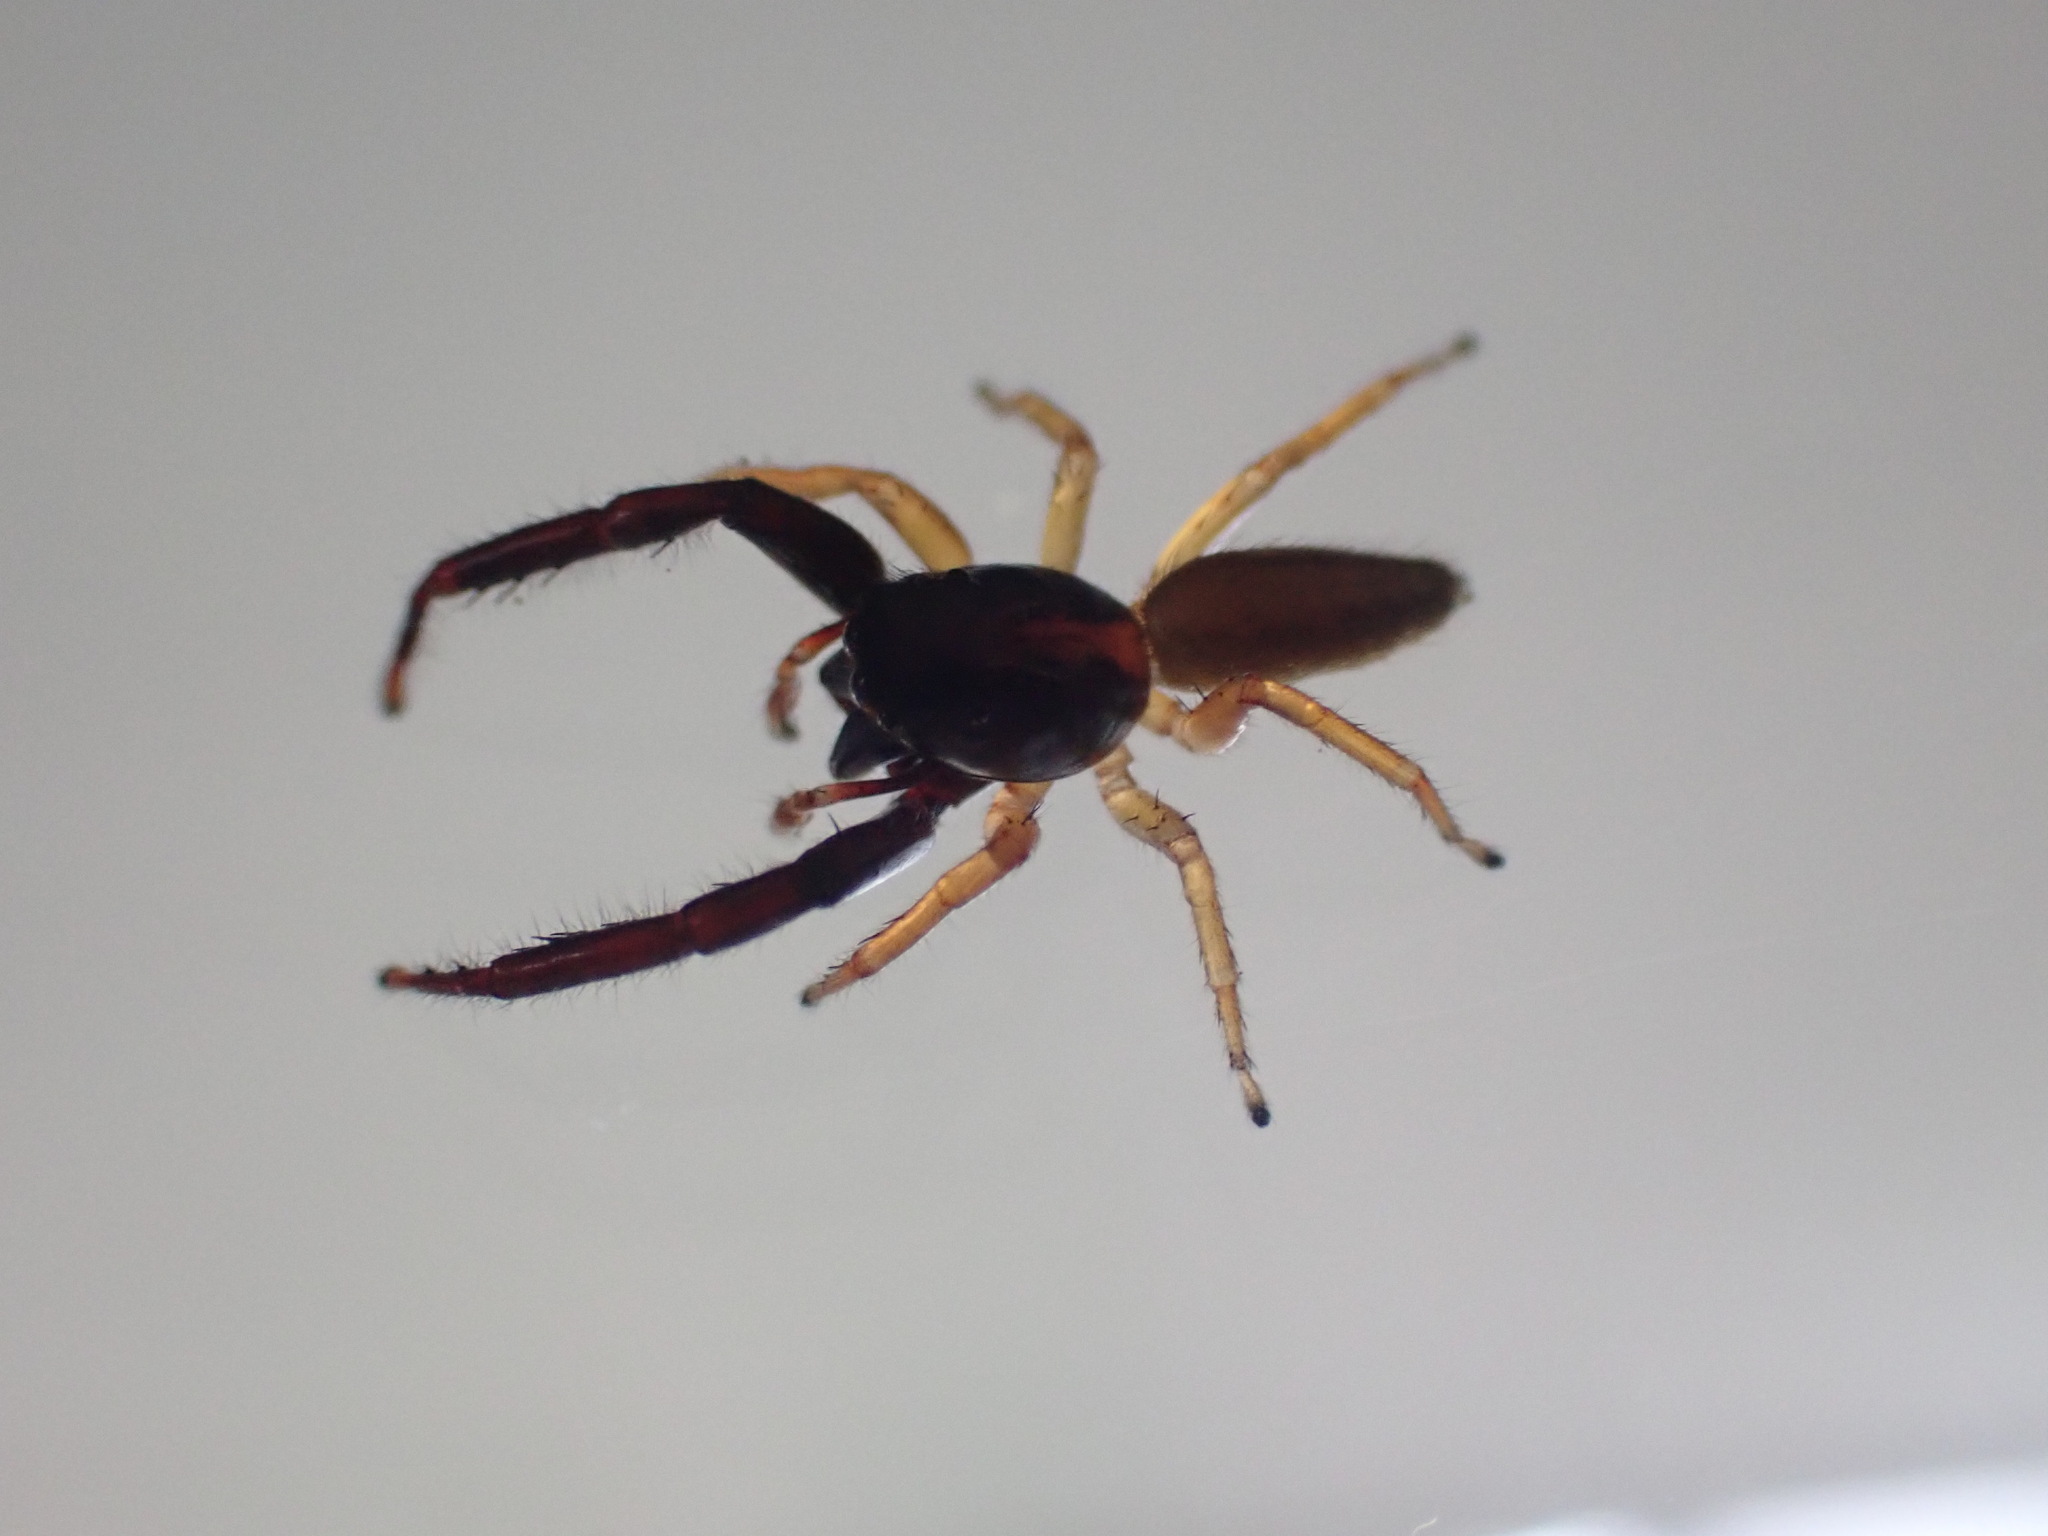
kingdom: Animalia
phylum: Arthropoda
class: Arachnida
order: Araneae
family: Salticidae
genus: Trite
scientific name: Trite planiceps
